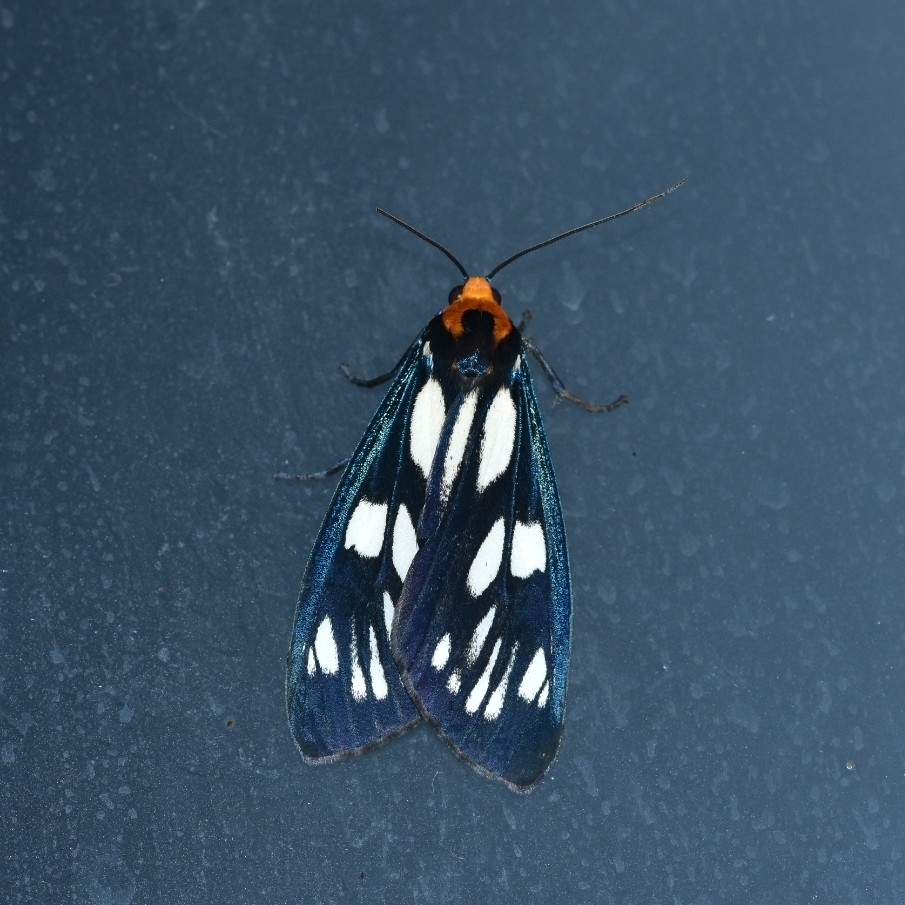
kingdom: Animalia
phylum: Arthropoda
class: Insecta
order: Lepidoptera
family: Erebidae
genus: Macrobrochis
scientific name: Macrobrochis gigas
